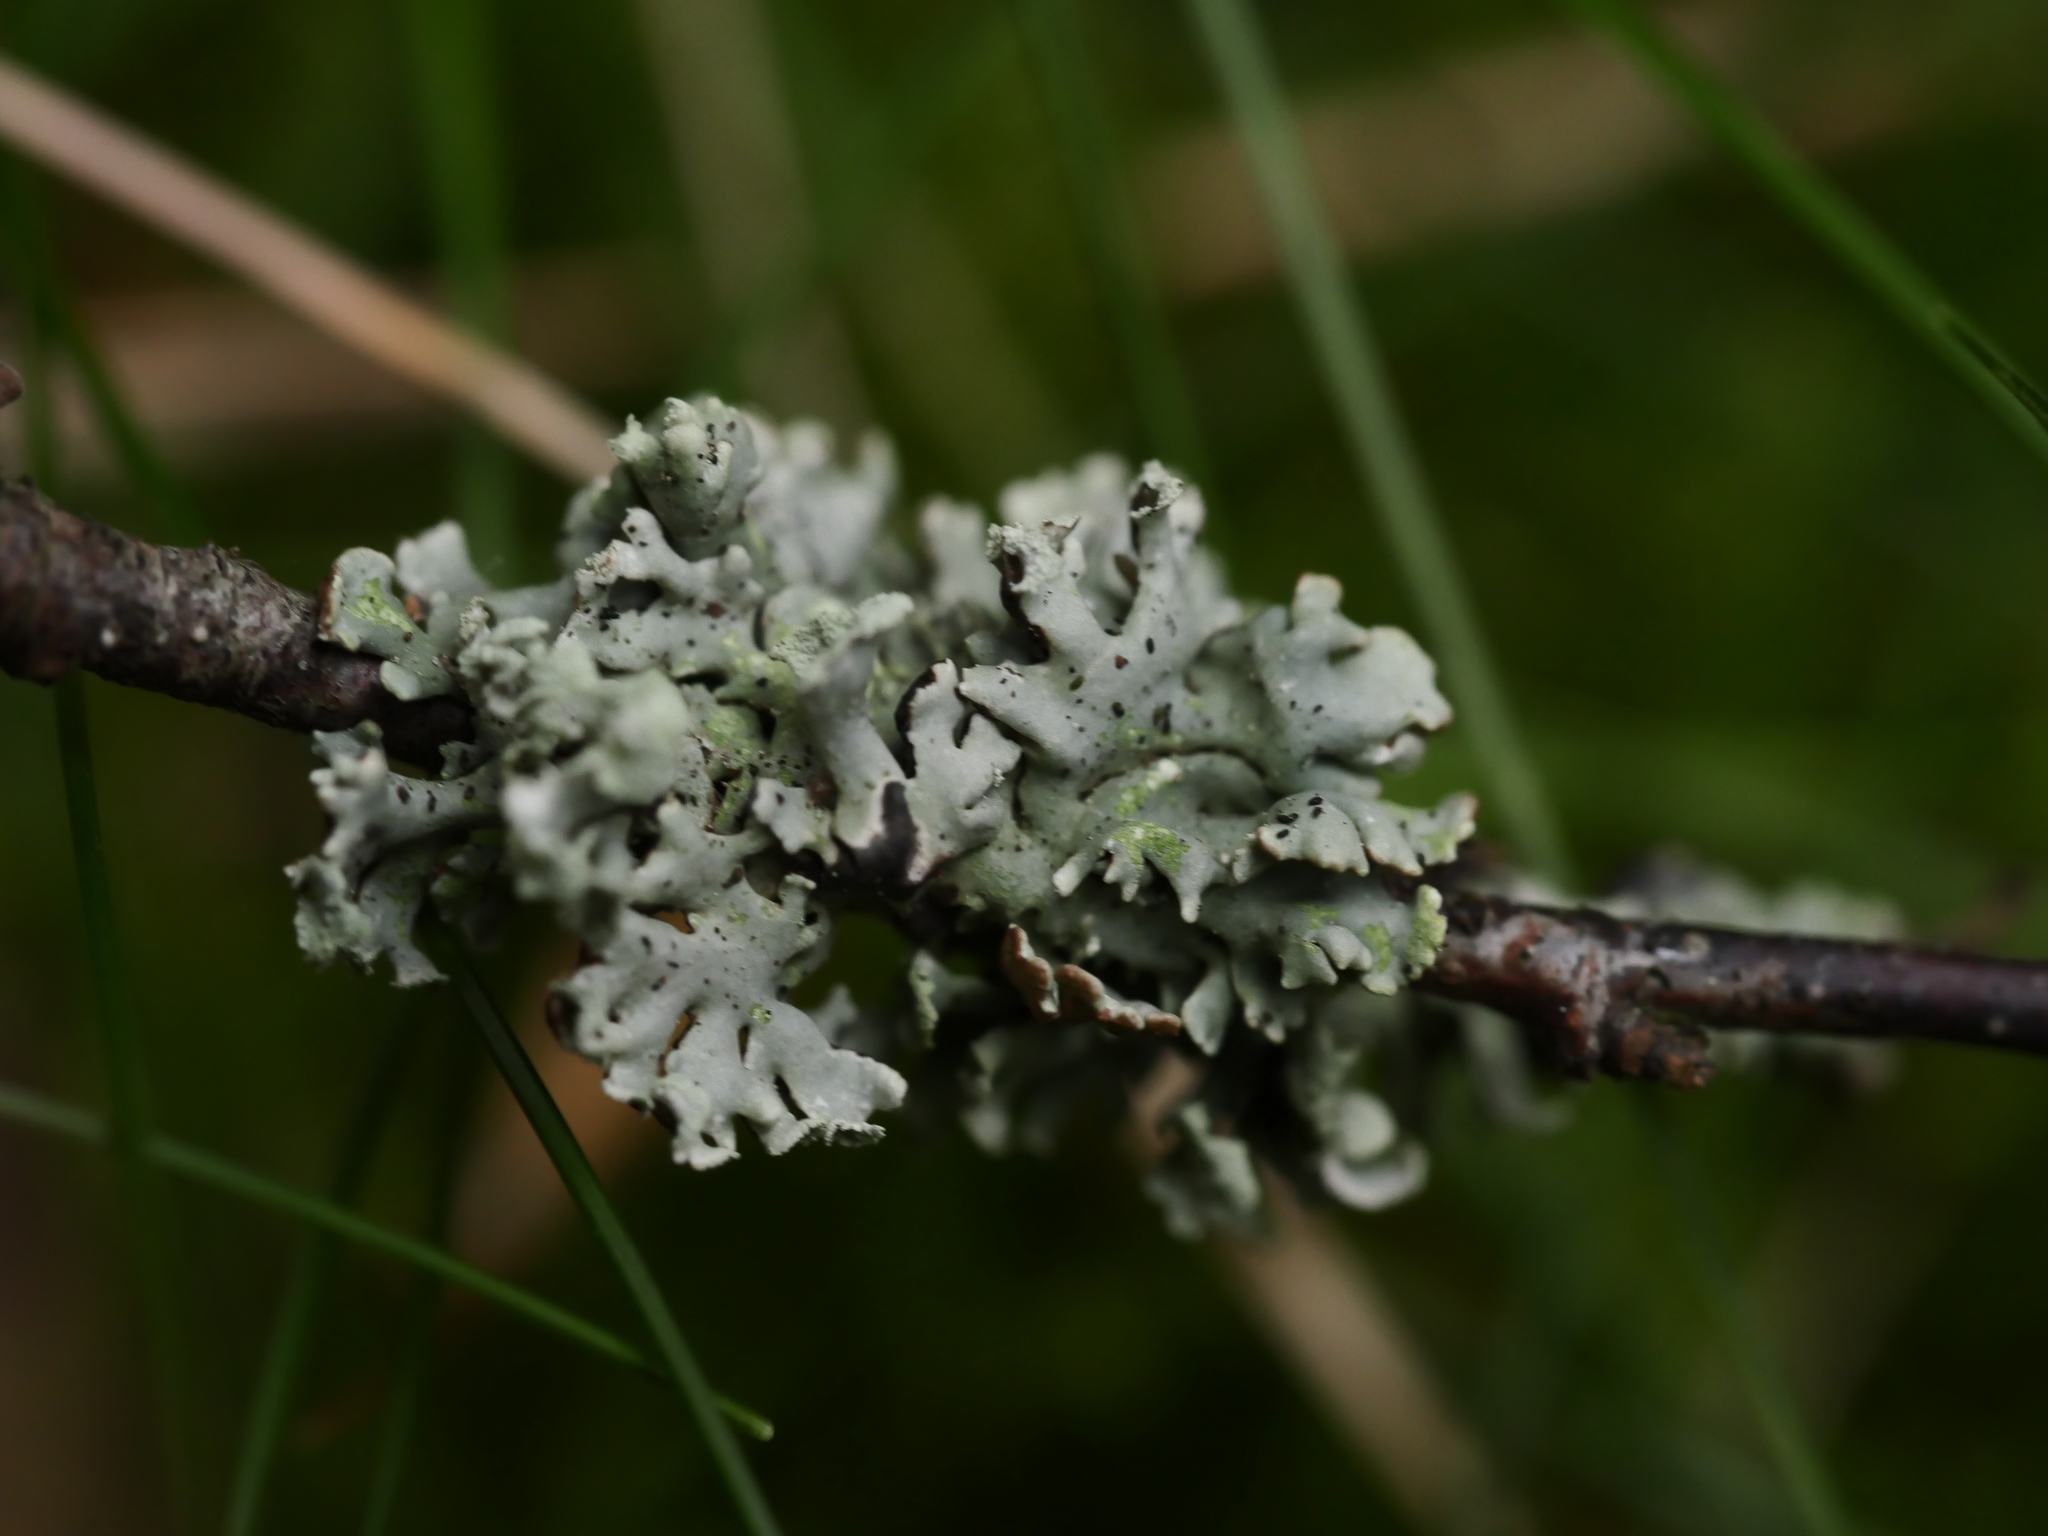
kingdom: Fungi
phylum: Ascomycota
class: Lecanoromycetes
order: Lecanorales
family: Parmeliaceae
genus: Hypogymnia
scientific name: Hypogymnia physodes
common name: Dark crottle
